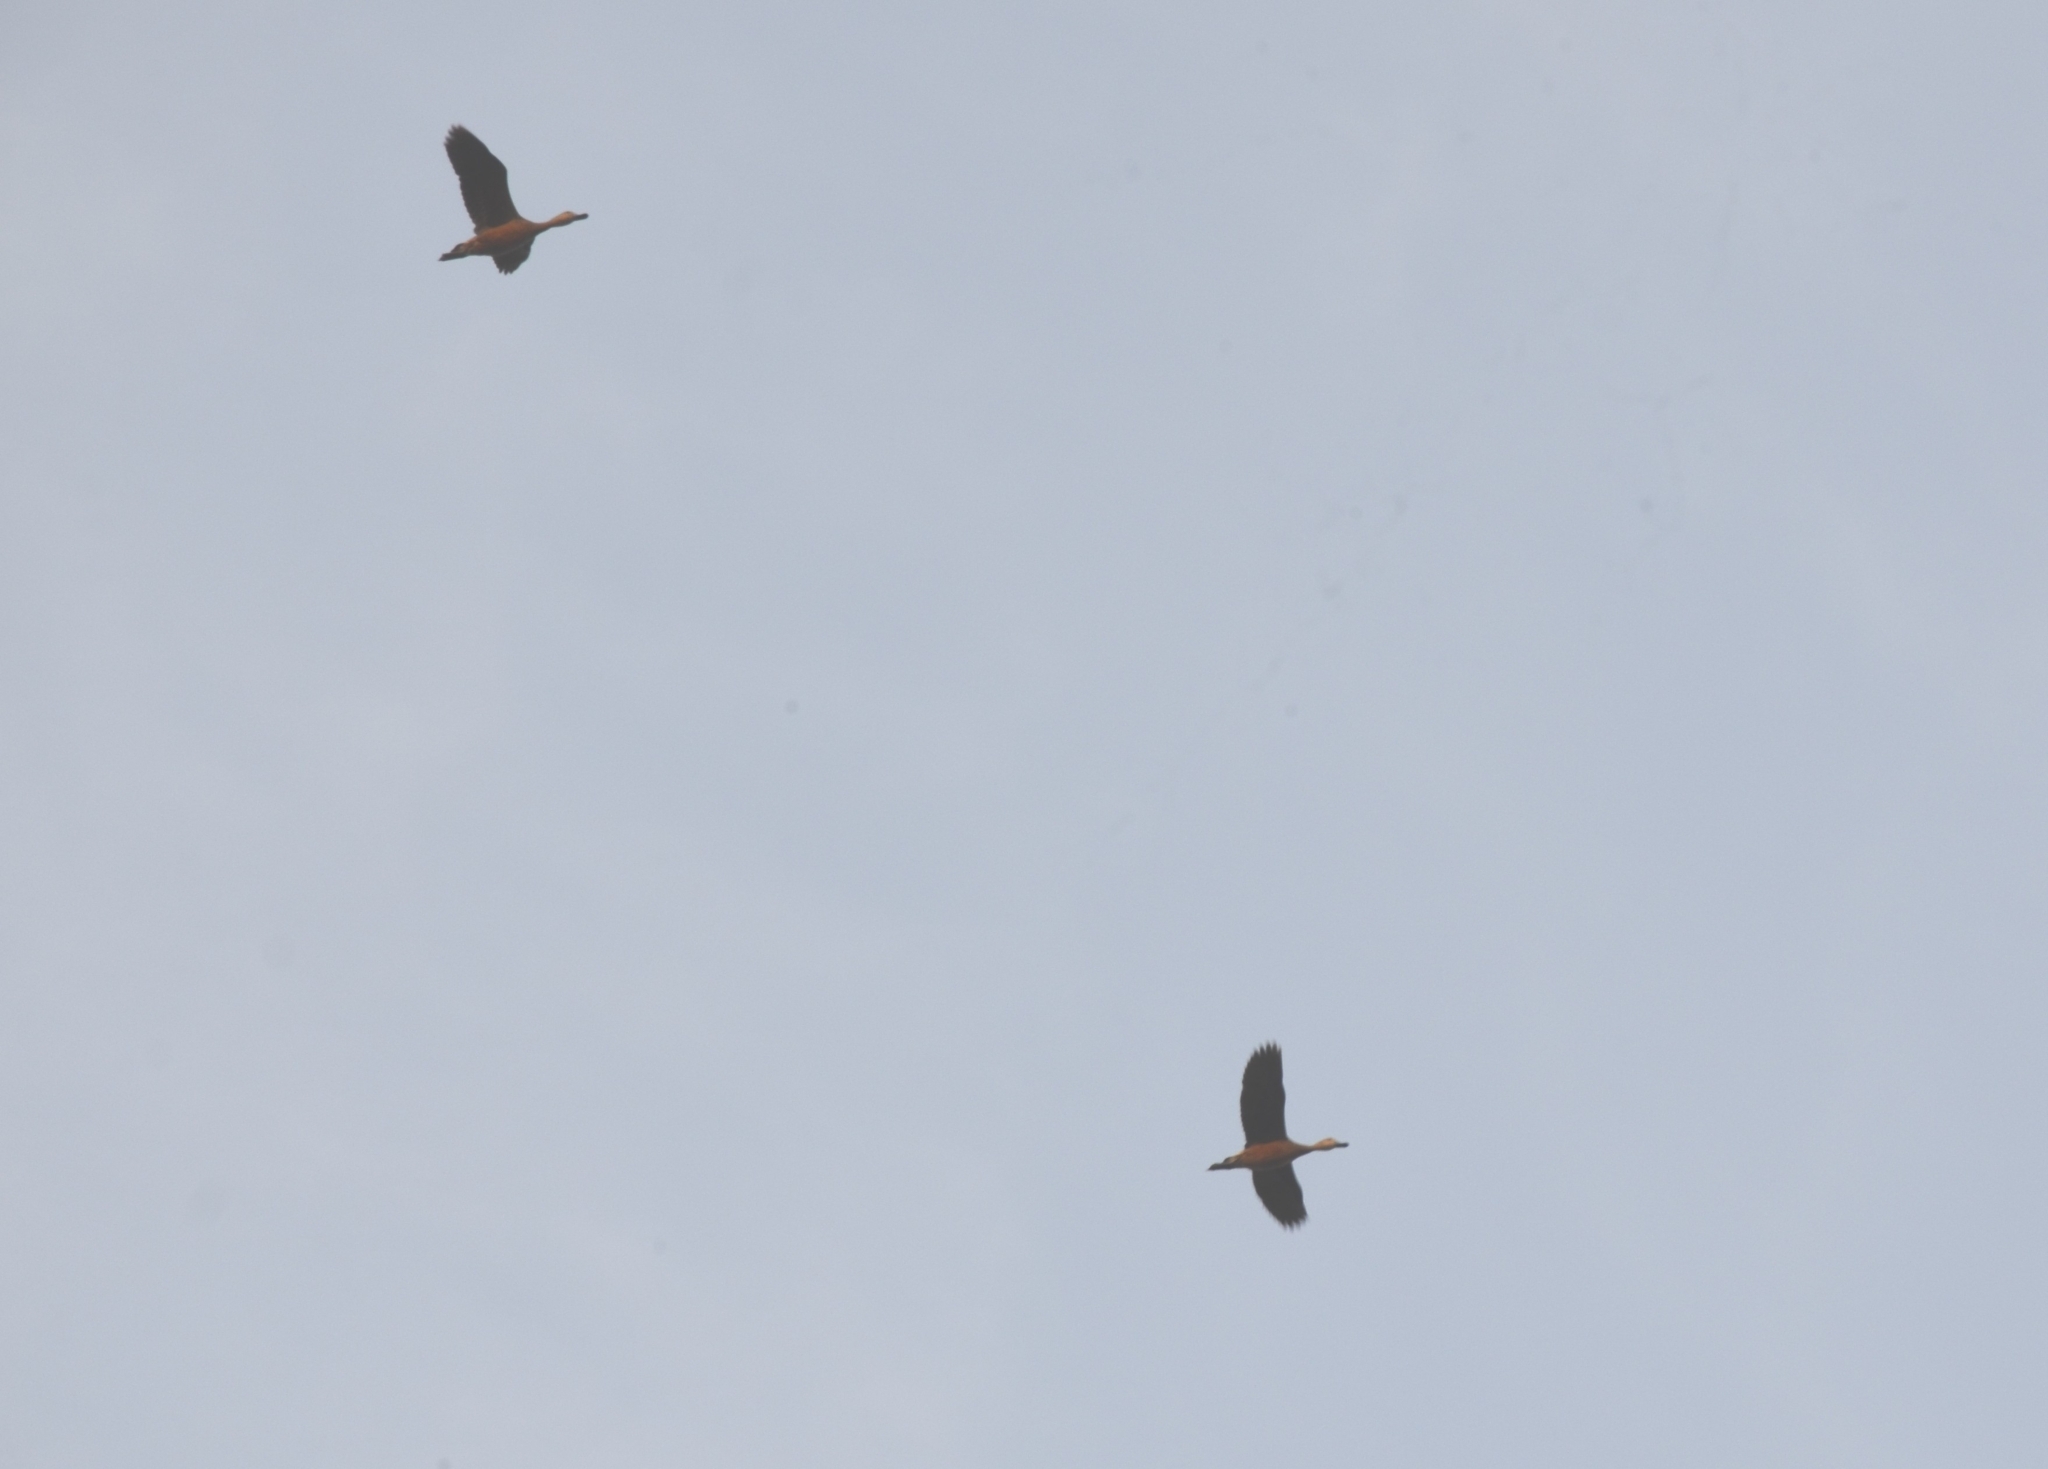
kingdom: Animalia
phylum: Chordata
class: Aves
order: Anseriformes
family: Anatidae
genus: Dendrocygna
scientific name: Dendrocygna javanica
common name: Lesser whistling-duck
